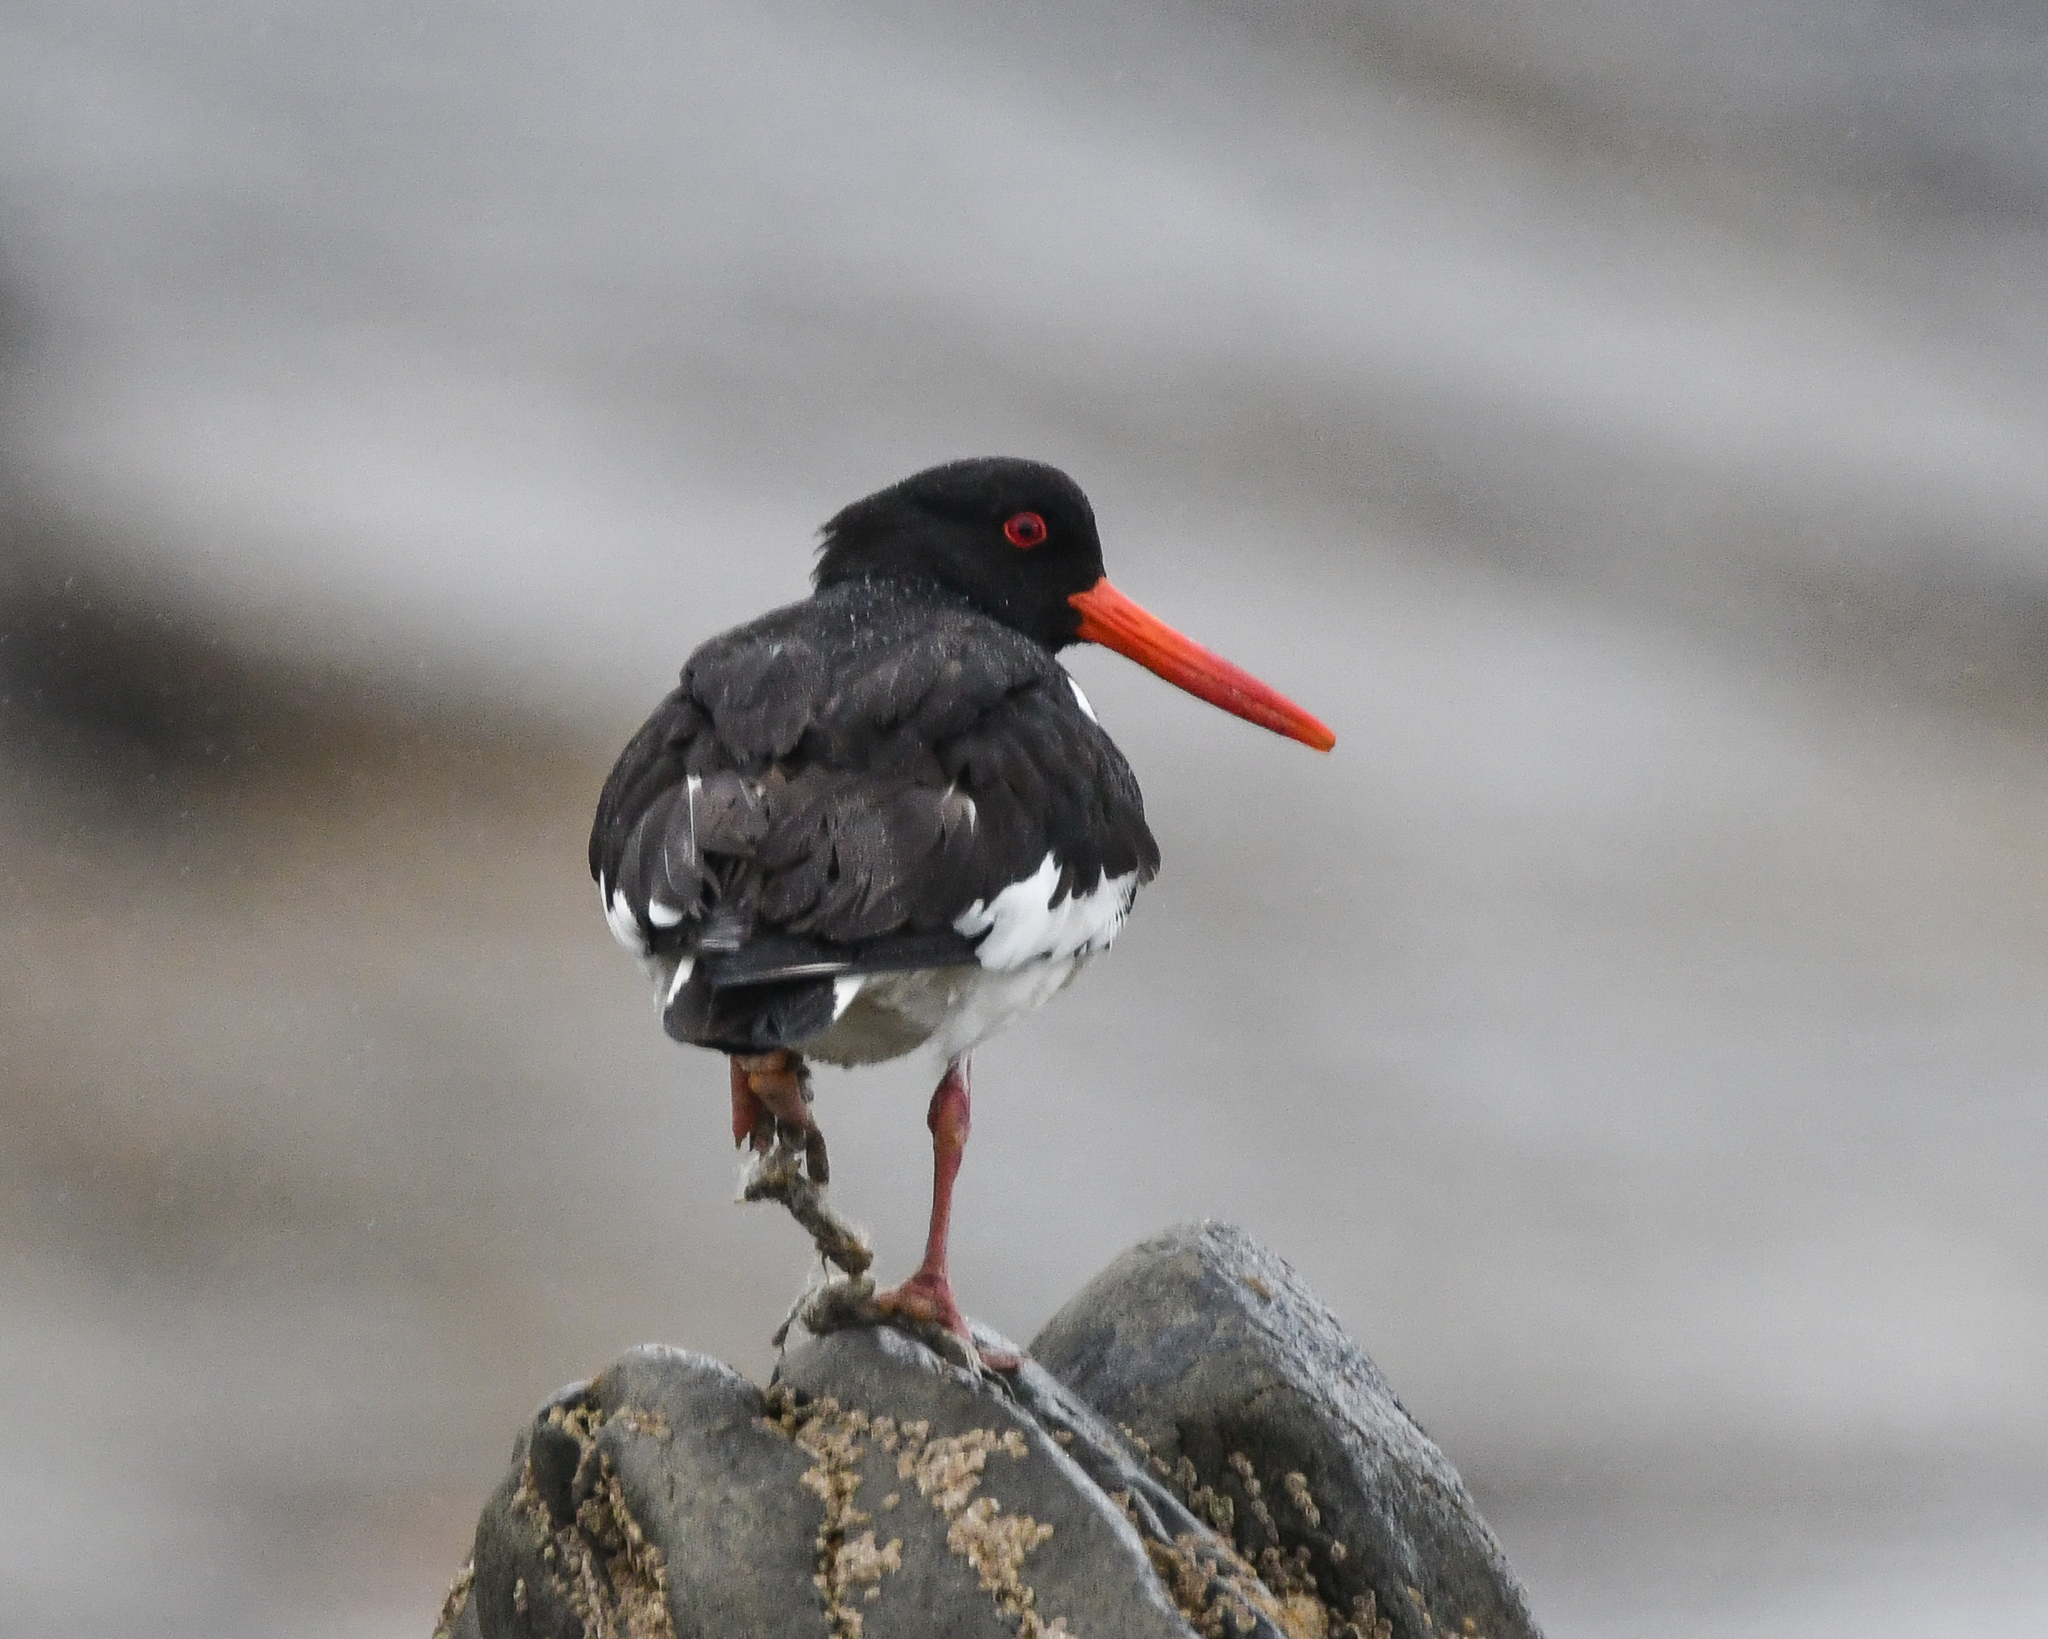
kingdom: Animalia
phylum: Chordata
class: Aves
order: Charadriiformes
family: Haematopodidae
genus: Haematopus
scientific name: Haematopus ostralegus
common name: Eurasian oystercatcher
